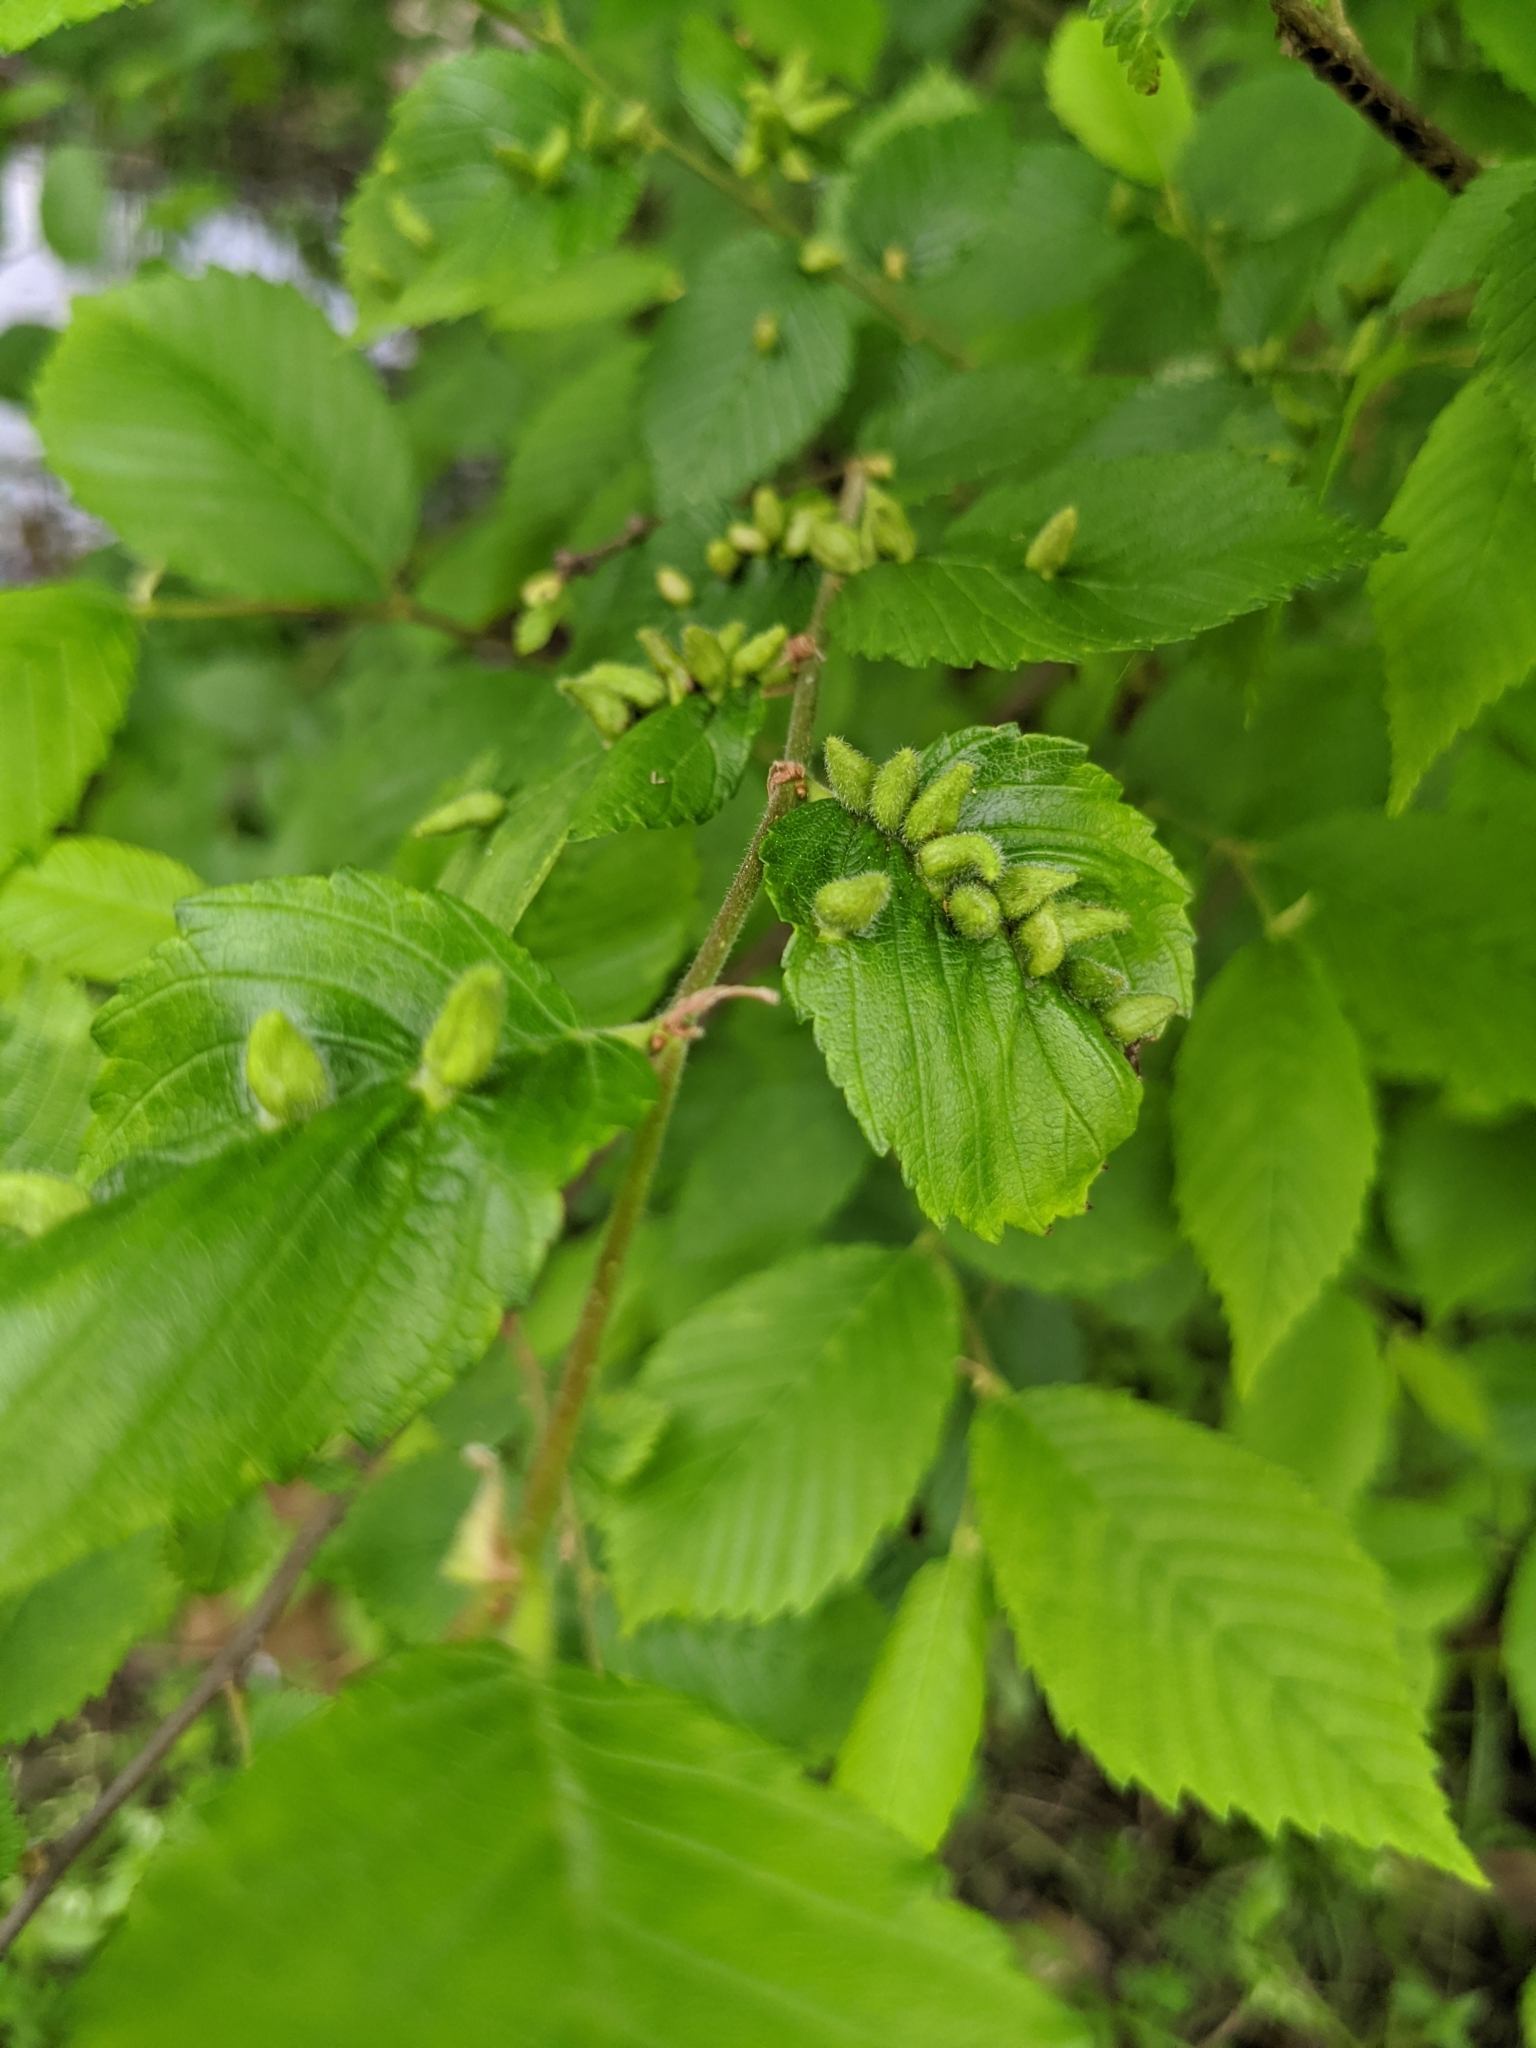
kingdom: Animalia
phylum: Arthropoda
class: Arachnida
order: Trombidiformes
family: Eriophyidae
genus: Aceria
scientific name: Aceria
